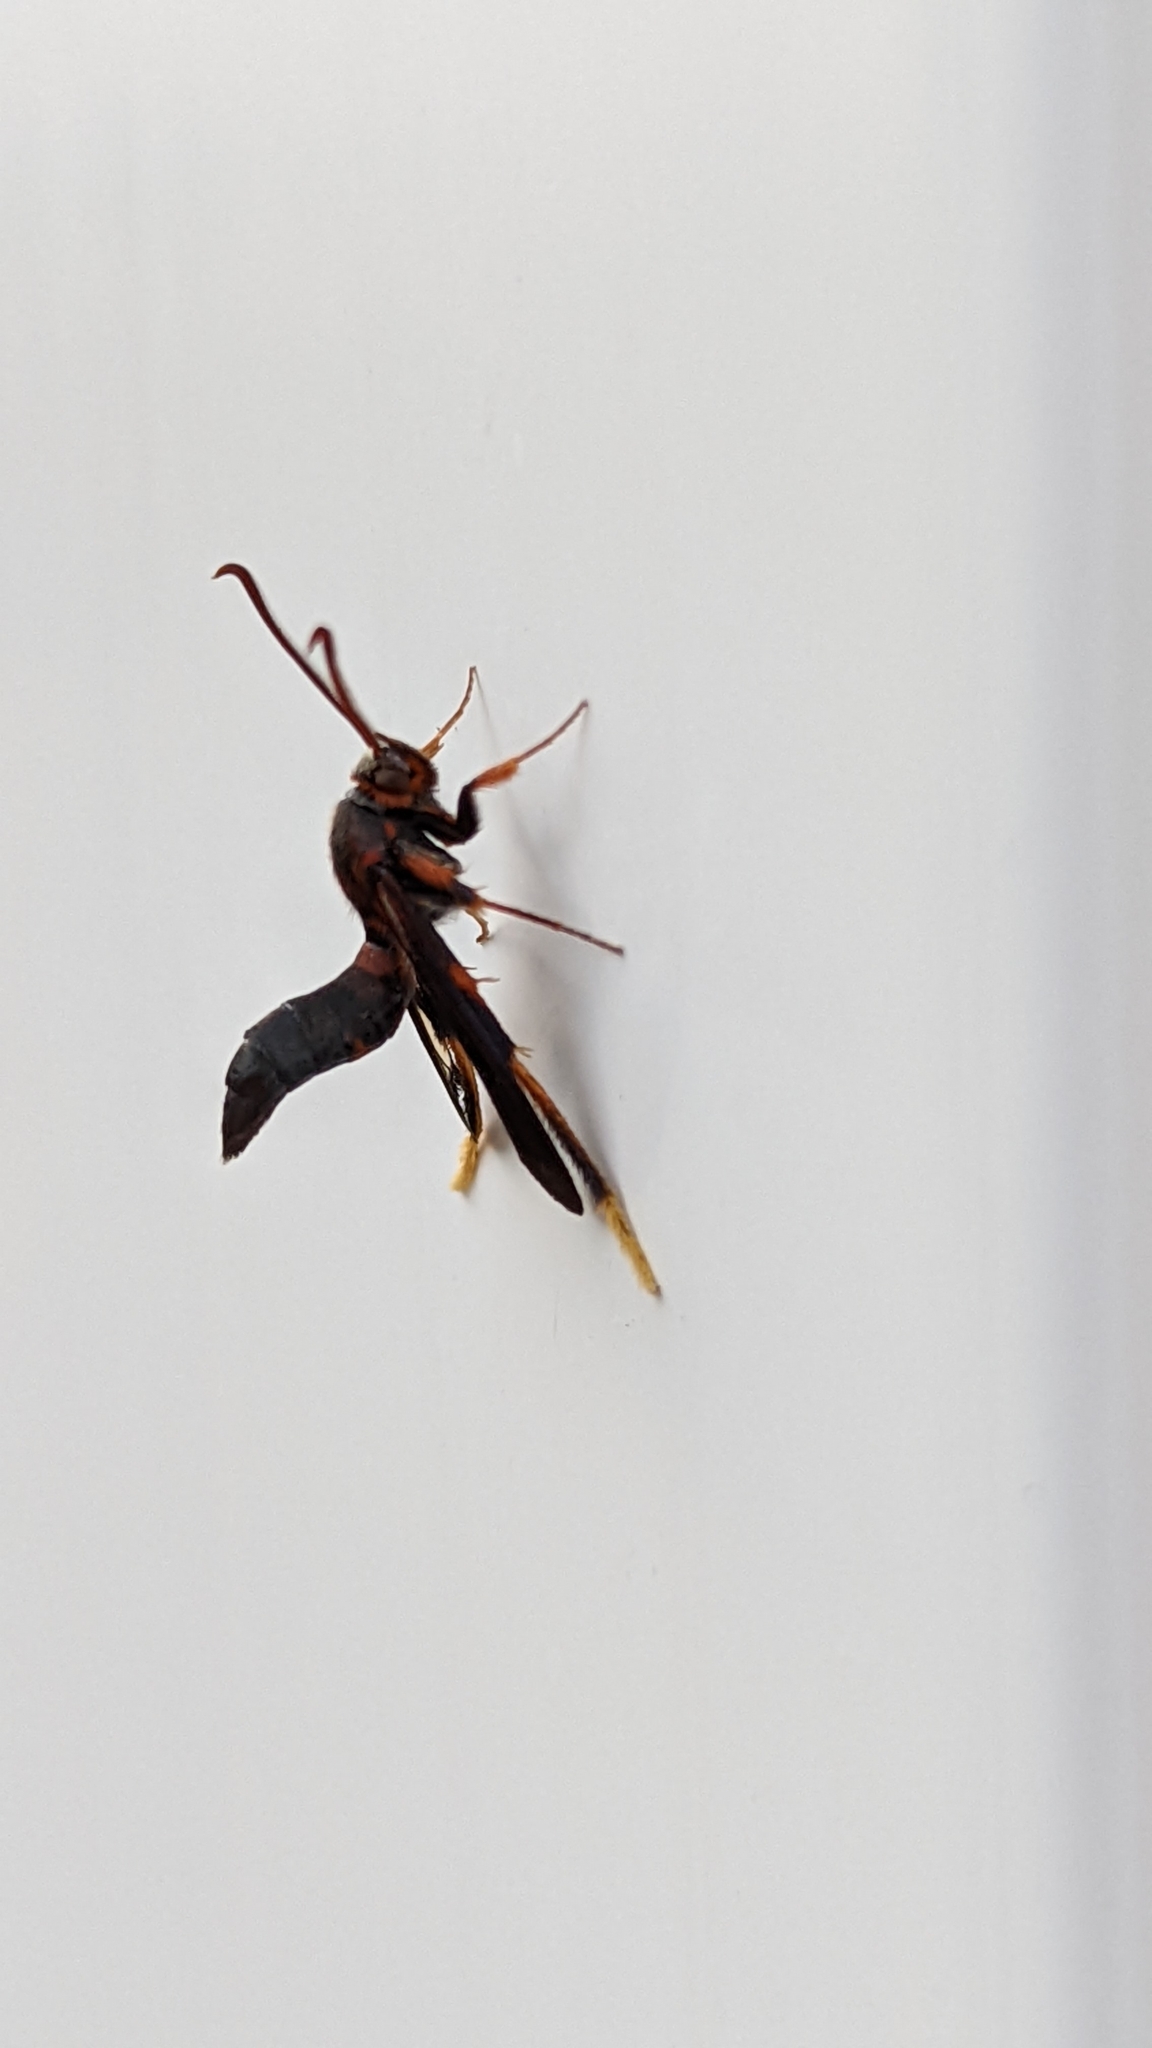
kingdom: Animalia
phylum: Arthropoda
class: Insecta
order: Lepidoptera
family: Sesiidae
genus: Podosesia
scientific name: Podosesia syringae
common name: Lilac borer moth
